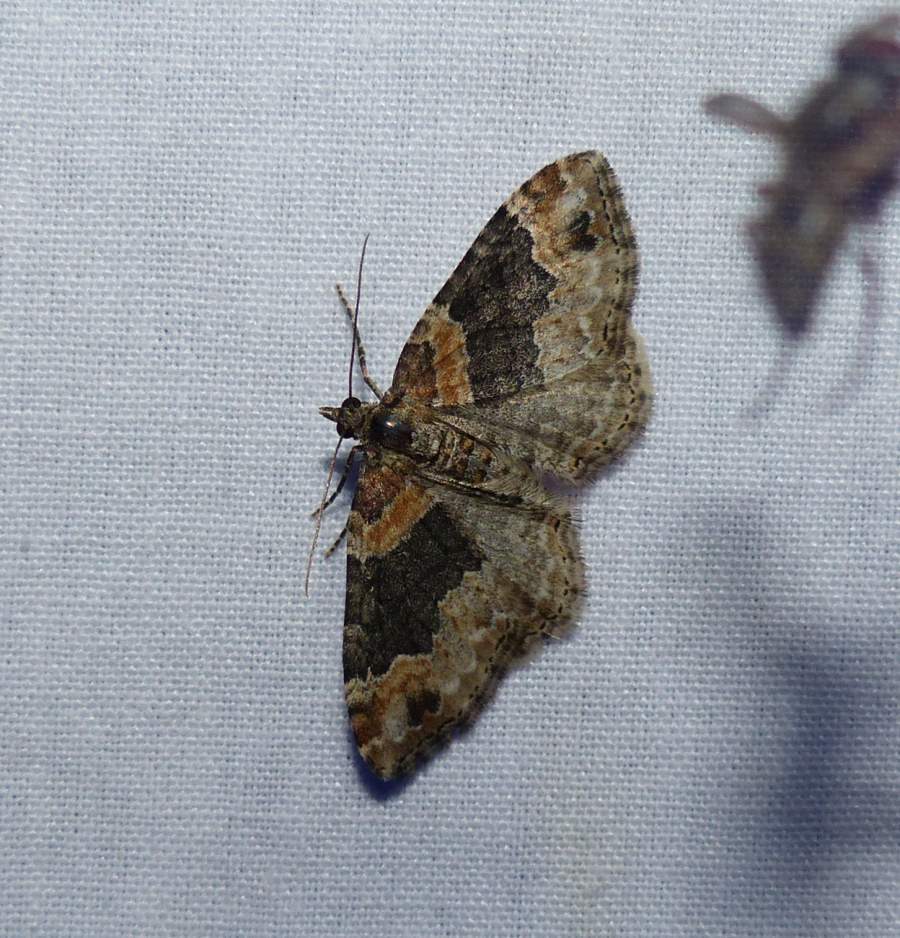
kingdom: Animalia
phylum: Arthropoda
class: Insecta
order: Lepidoptera
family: Geometridae
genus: Xanthorhoe
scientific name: Xanthorhoe ferrugata
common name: Dark-barred twin-spot carpet
